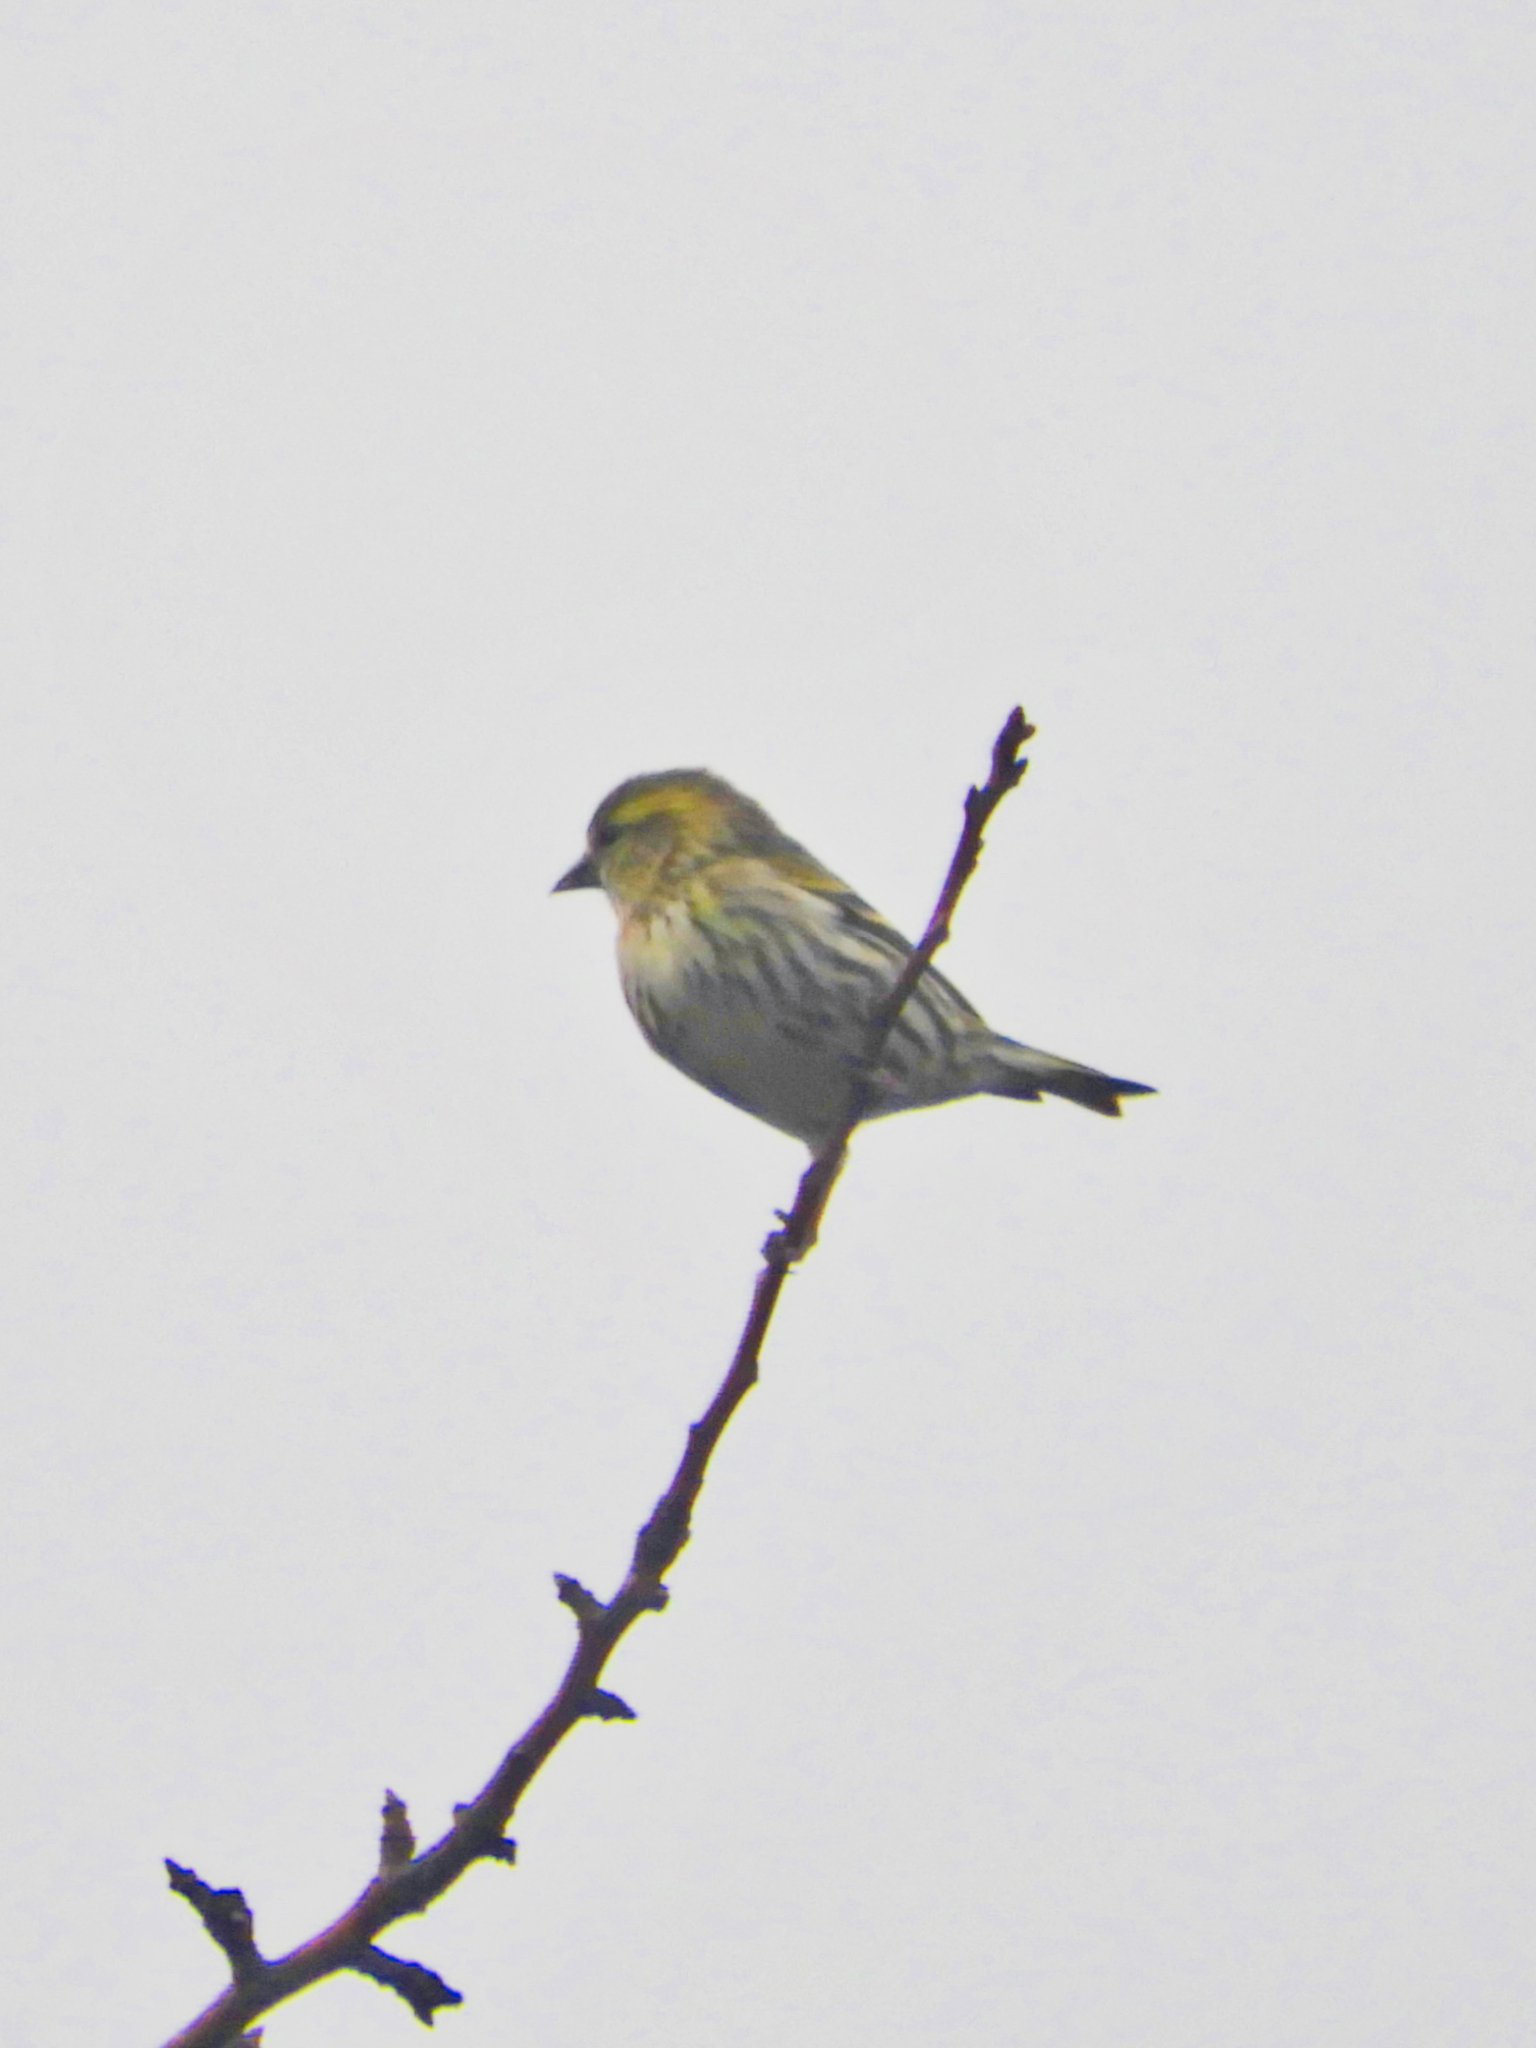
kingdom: Animalia
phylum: Chordata
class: Aves
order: Passeriformes
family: Fringillidae
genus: Spinus
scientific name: Spinus spinus
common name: Eurasian siskin
